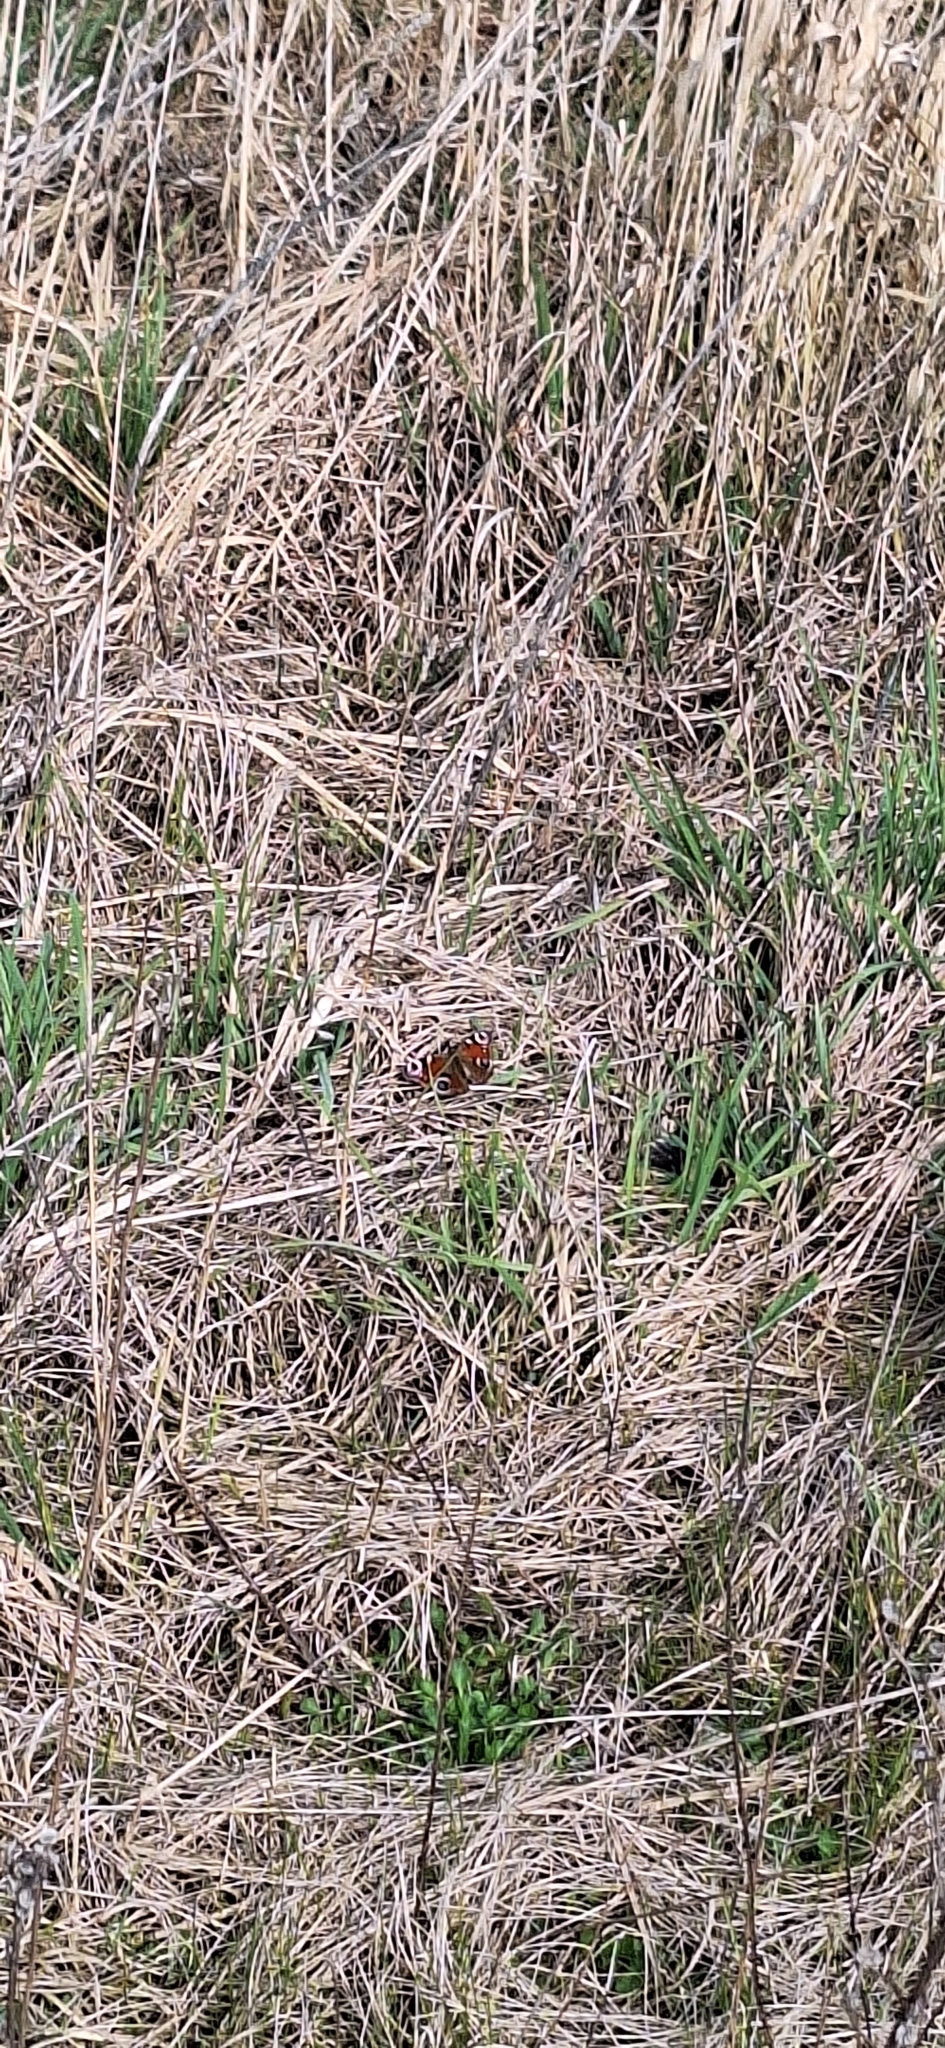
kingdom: Animalia
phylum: Arthropoda
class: Insecta
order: Lepidoptera
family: Nymphalidae
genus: Aglais
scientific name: Aglais io
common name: Peacock
